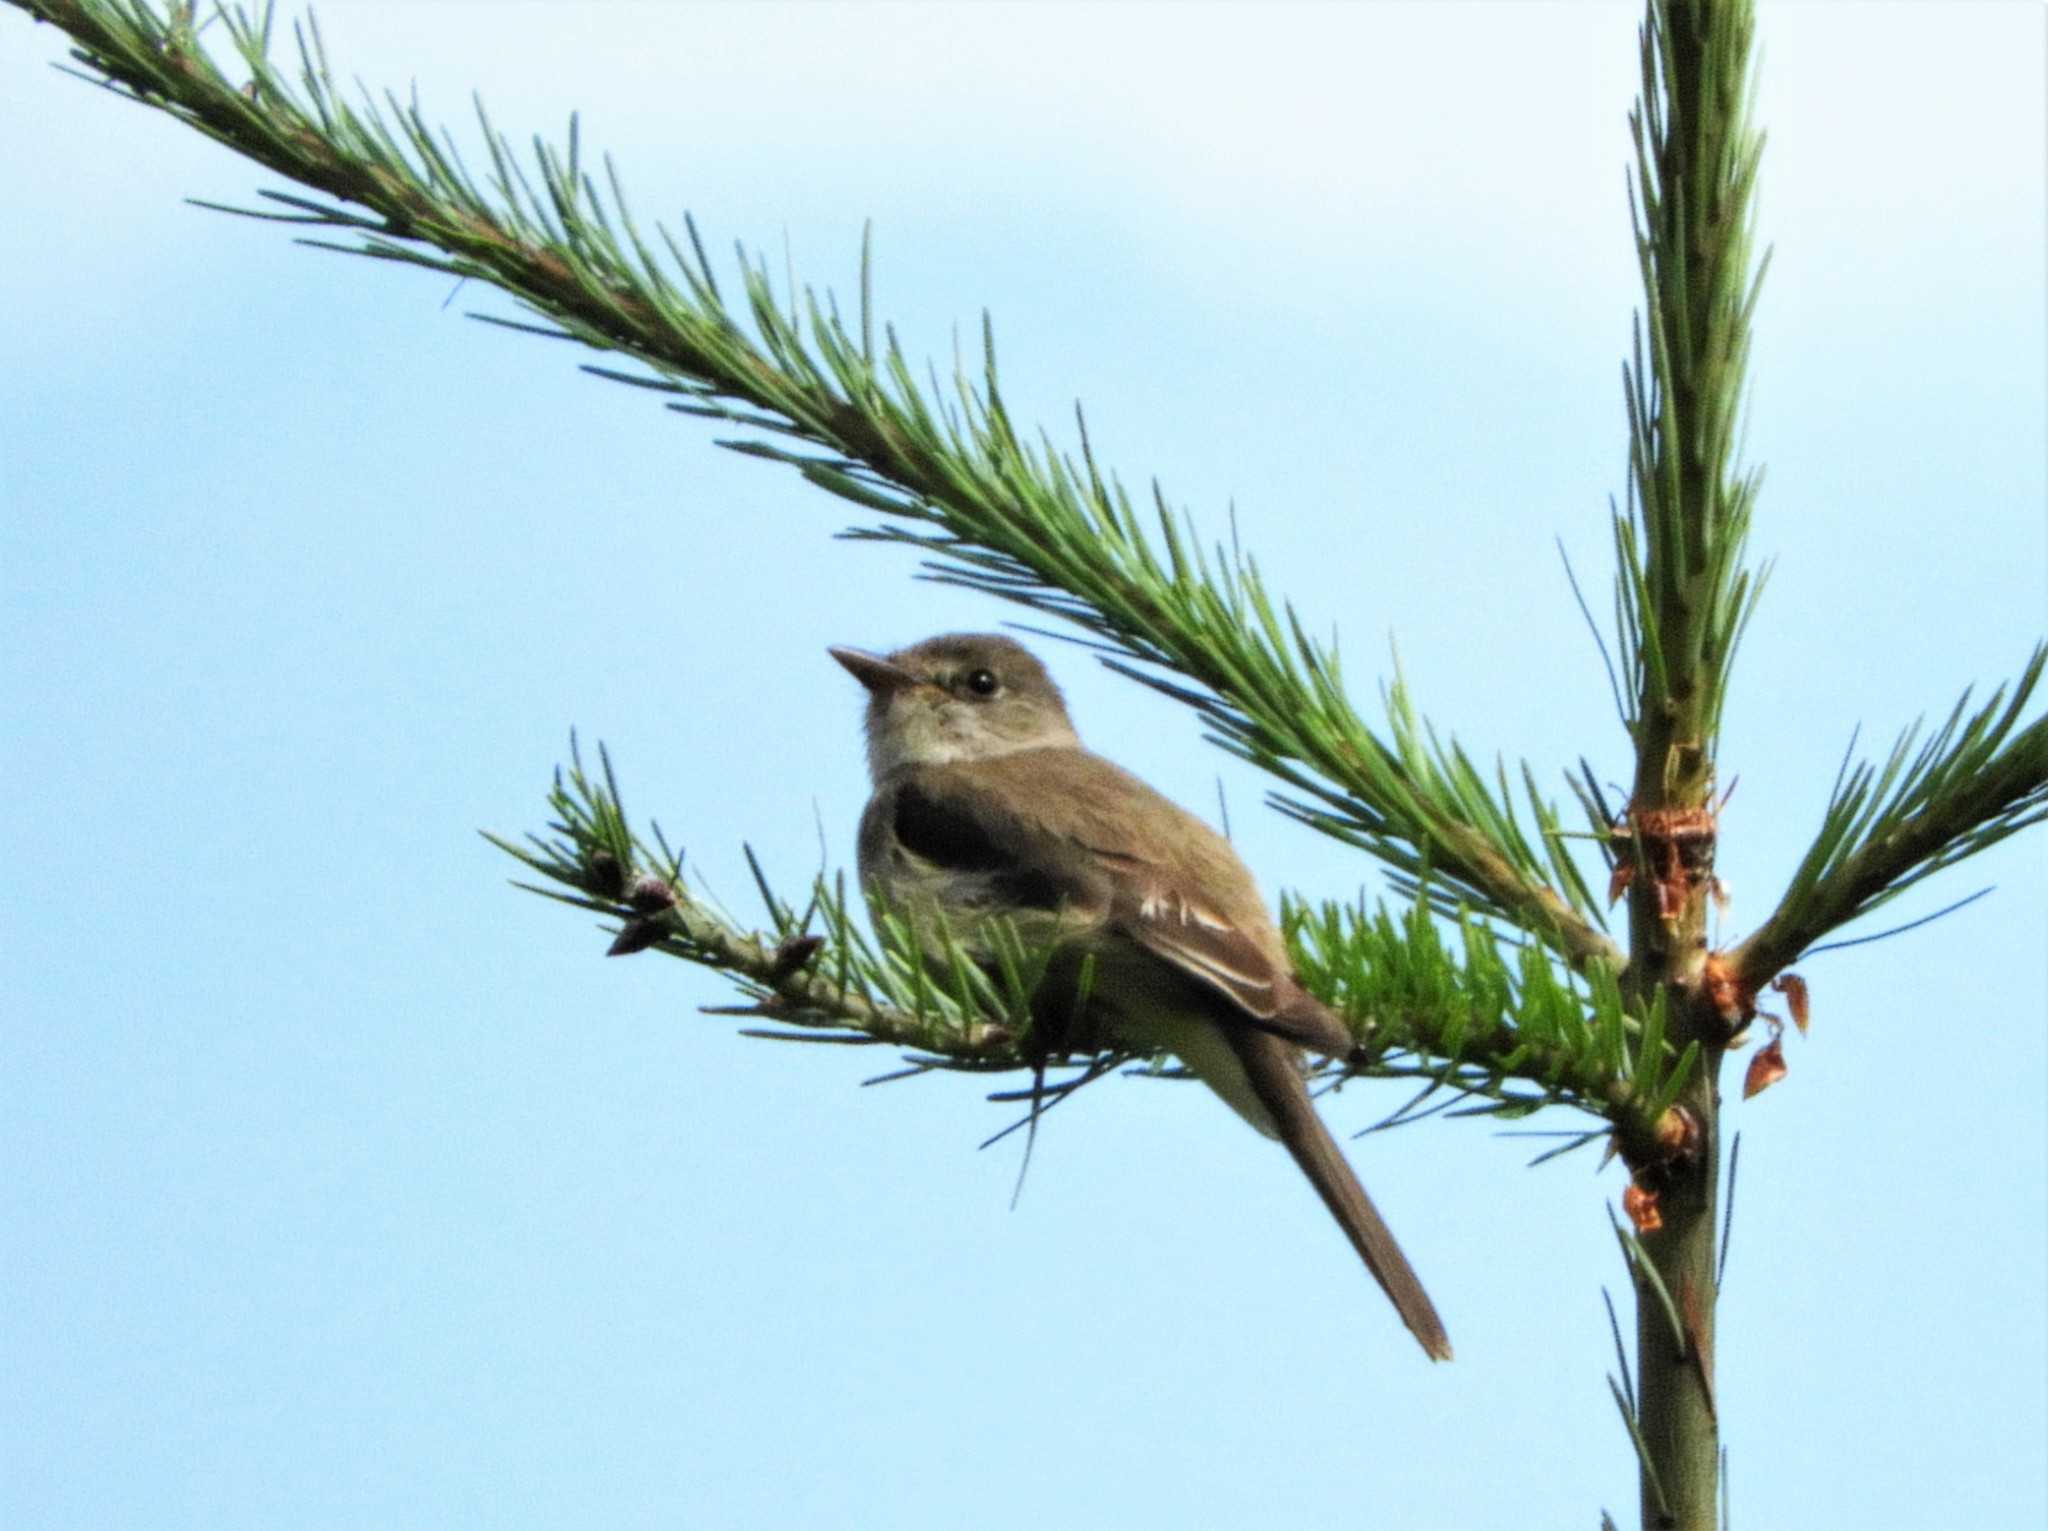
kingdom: Animalia
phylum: Chordata
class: Aves
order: Passeriformes
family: Tyrannidae
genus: Empidonax
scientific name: Empidonax traillii
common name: Willow flycatcher
